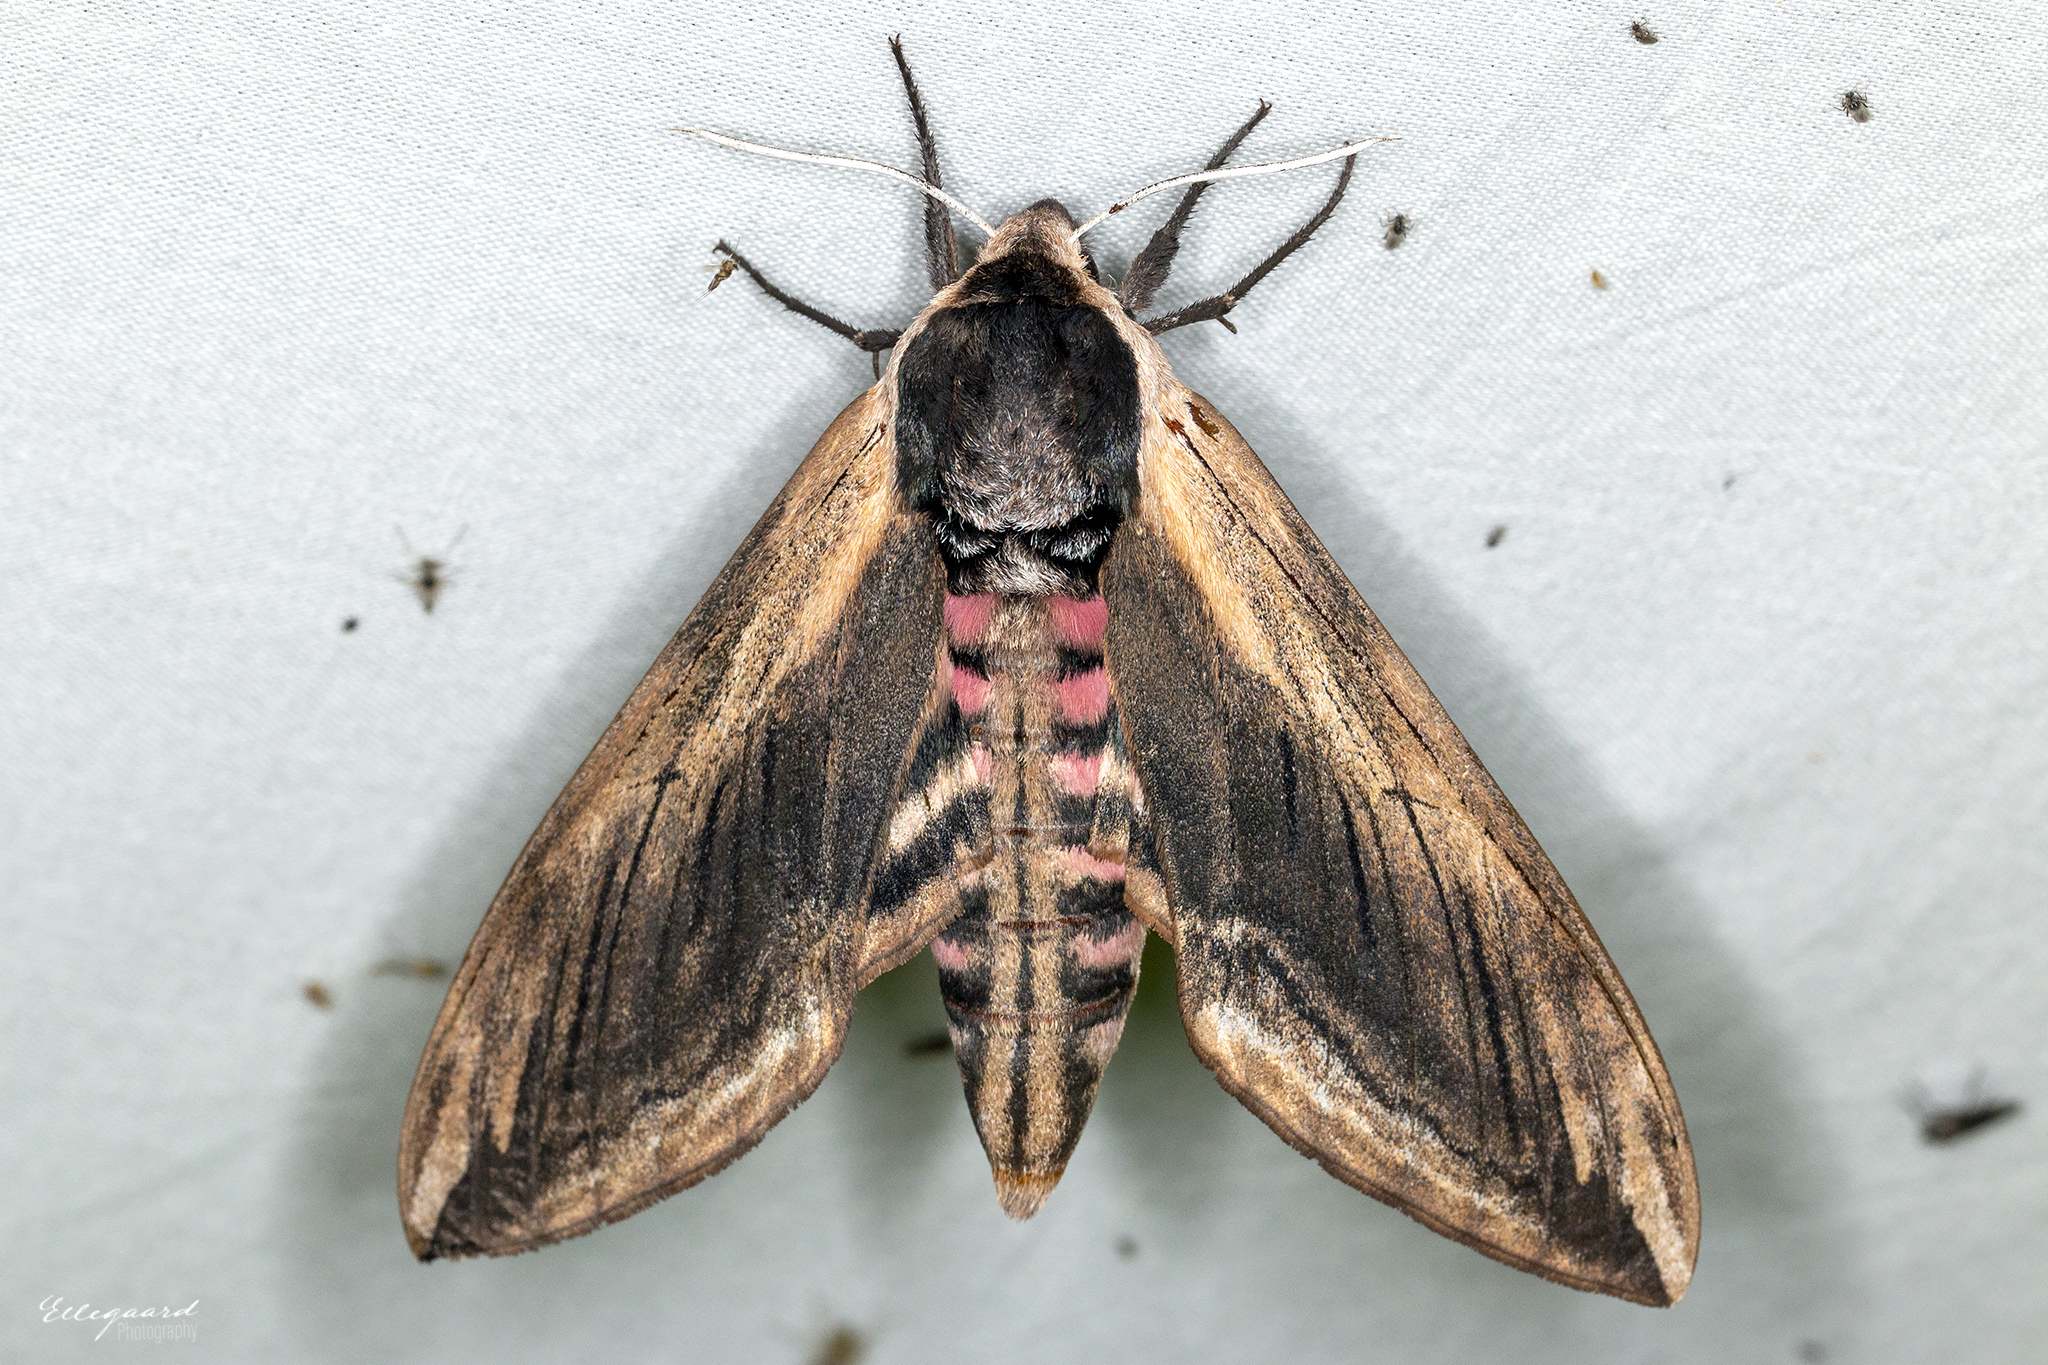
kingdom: Animalia
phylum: Arthropoda
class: Insecta
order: Lepidoptera
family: Sphingidae
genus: Sphinx
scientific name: Sphinx ligustri
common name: Privet hawk-moth
